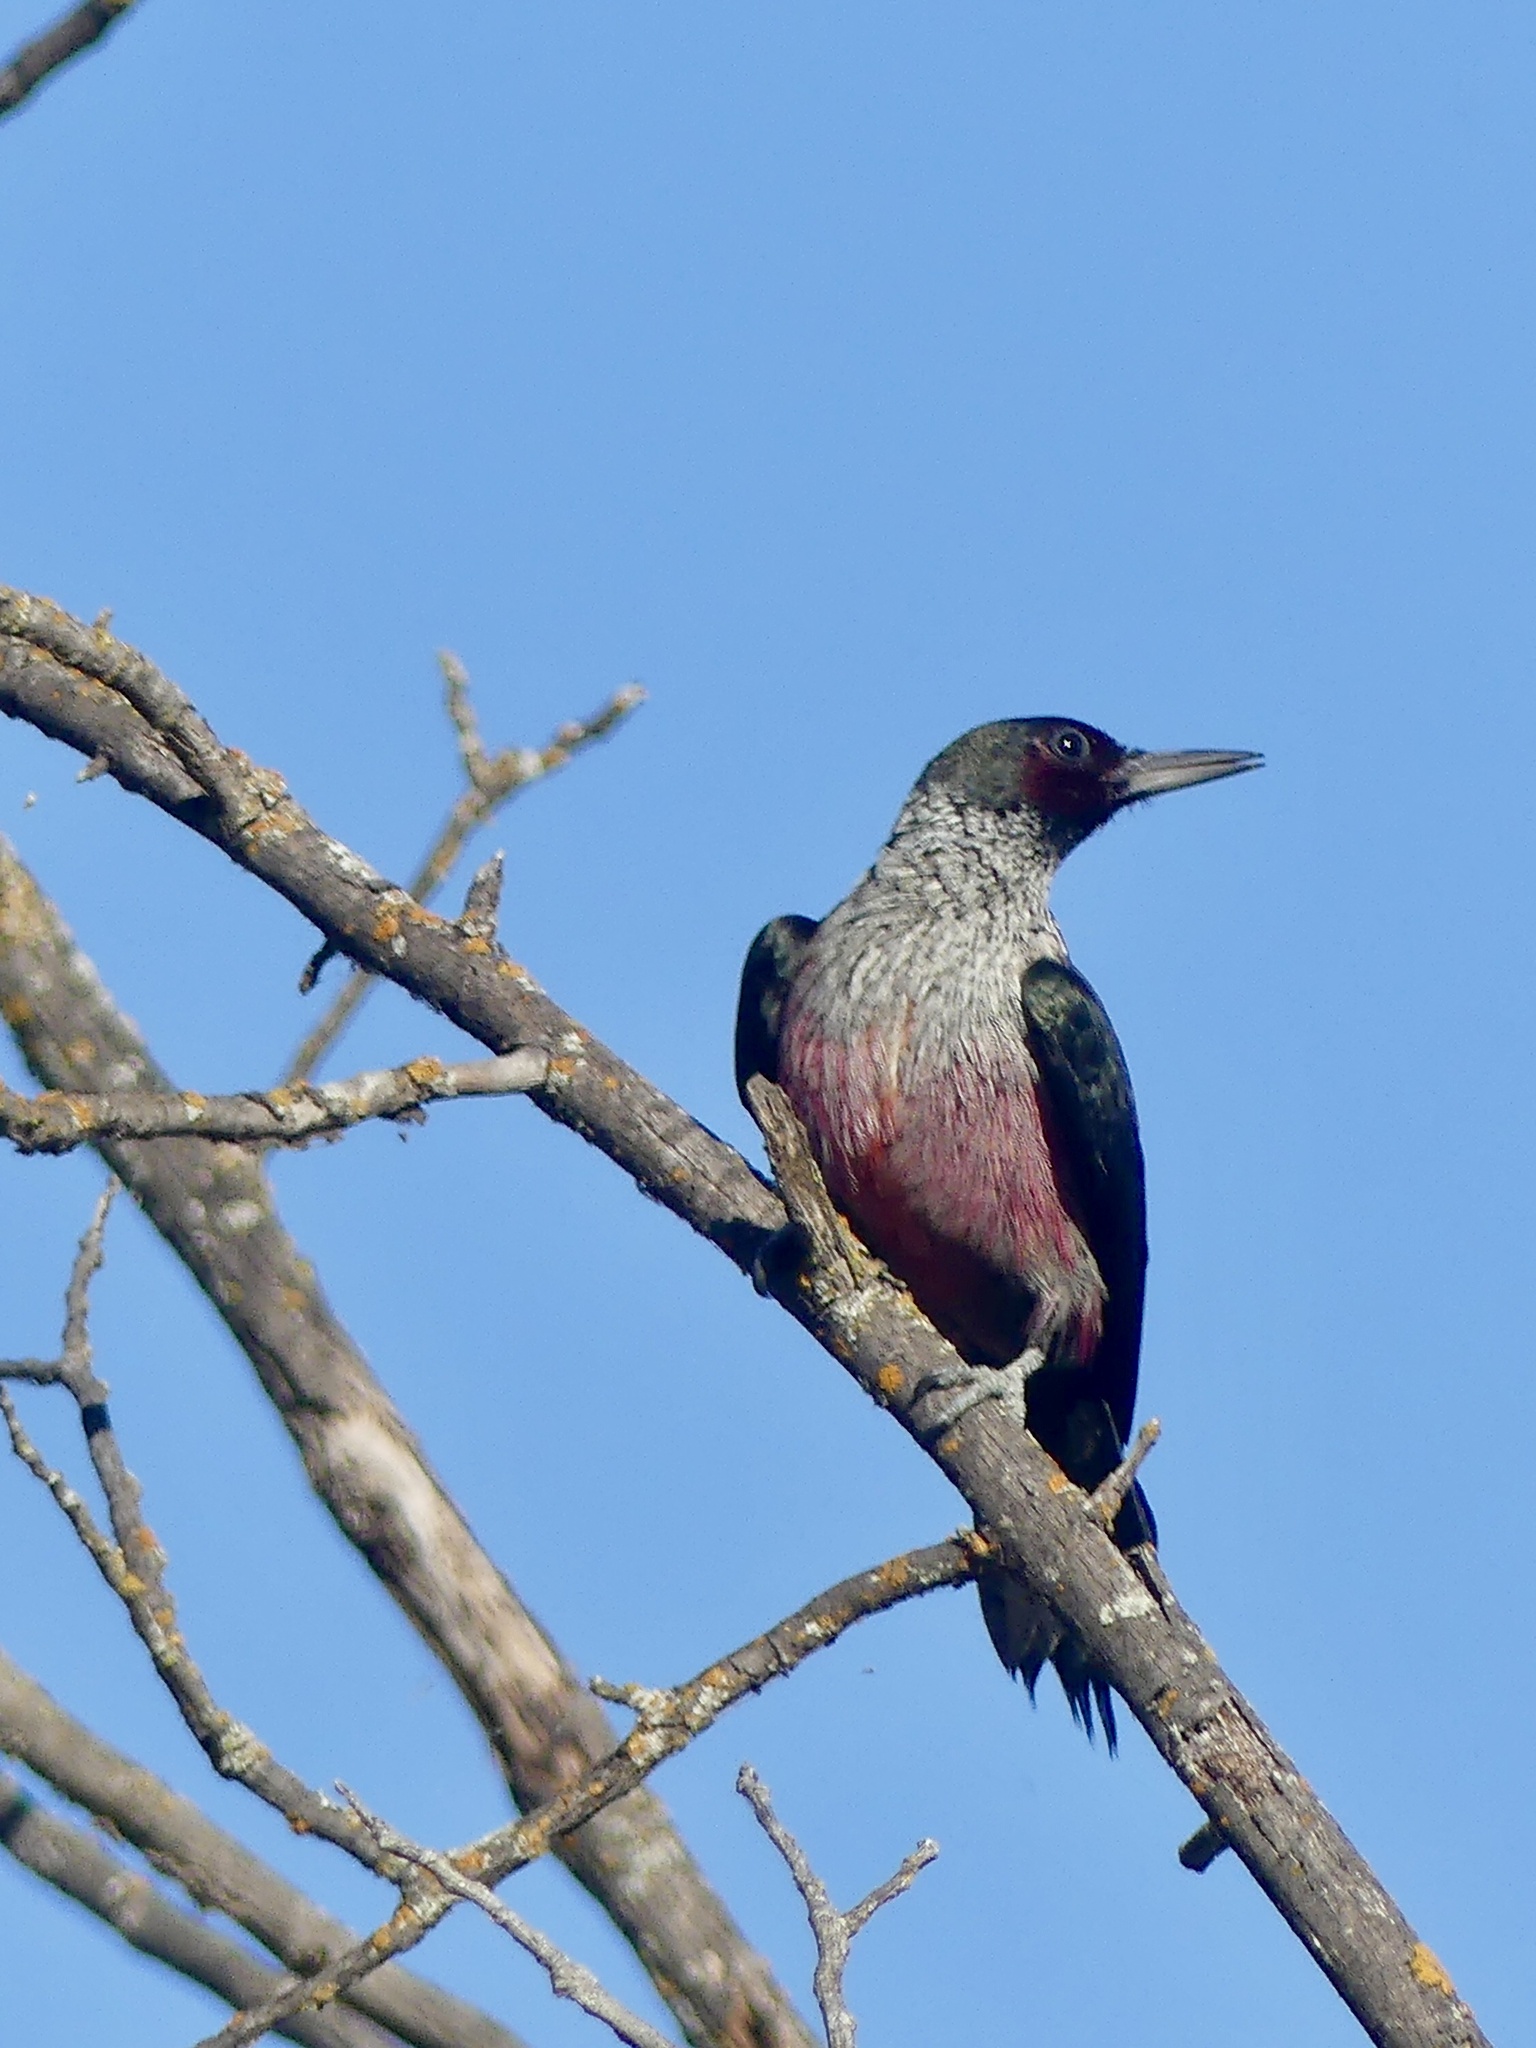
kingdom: Animalia
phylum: Chordata
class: Aves
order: Piciformes
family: Picidae
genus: Melanerpes
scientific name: Melanerpes lewis
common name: Lewis's woodpecker
